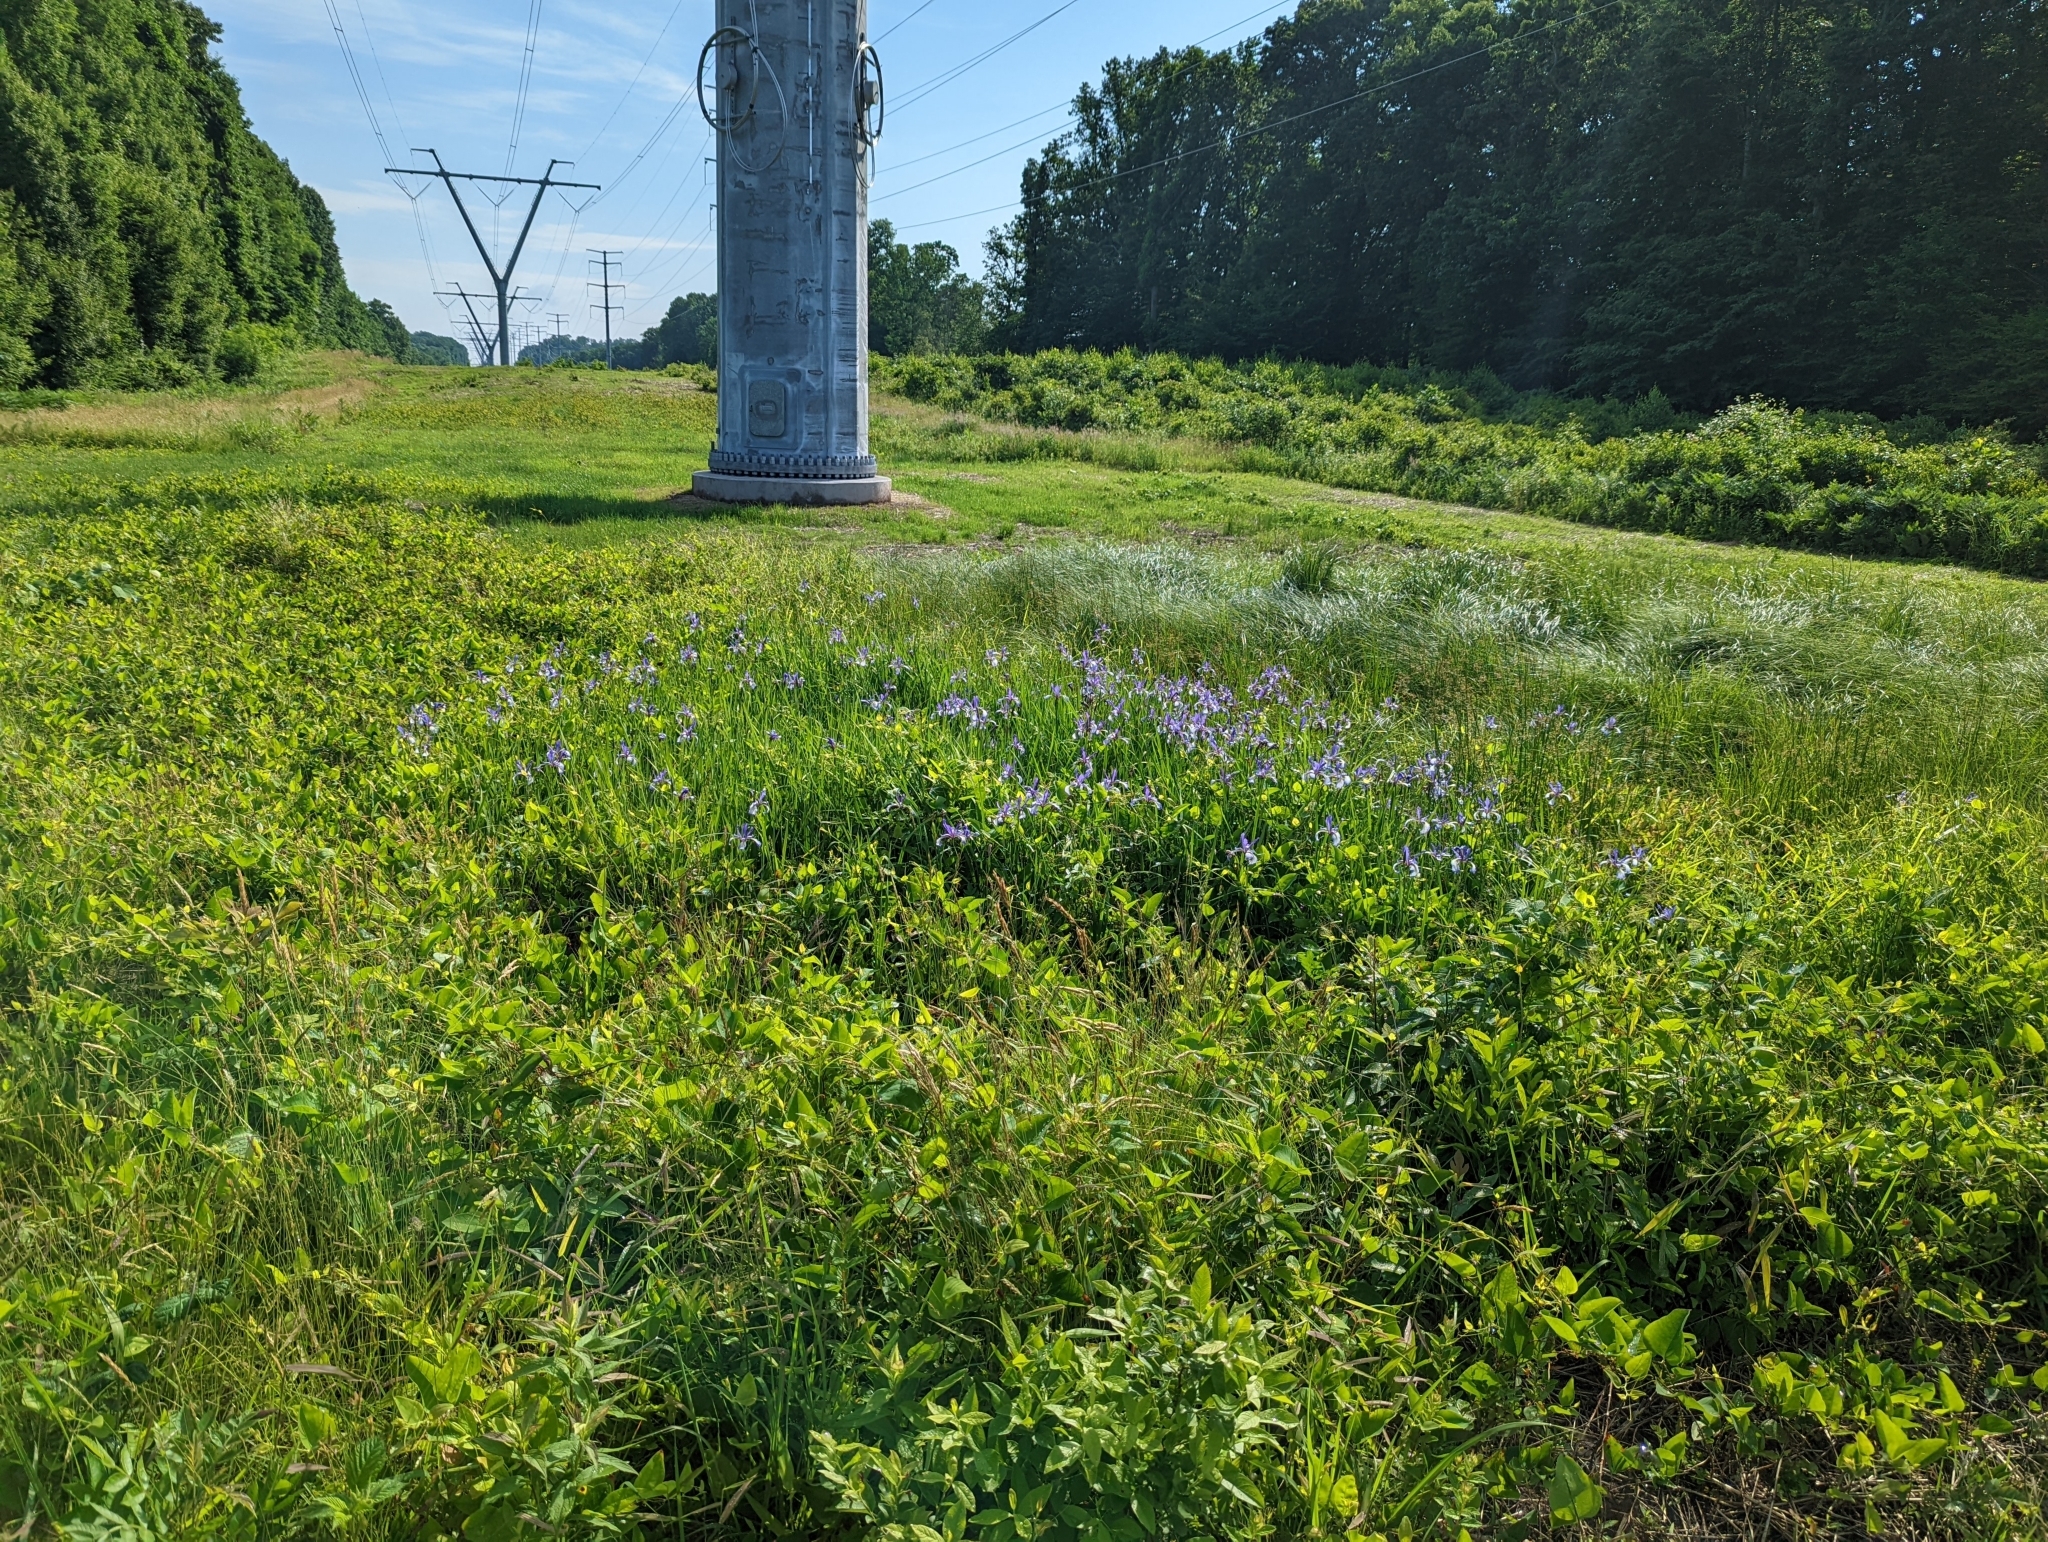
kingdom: Plantae
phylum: Tracheophyta
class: Liliopsida
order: Asparagales
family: Iridaceae
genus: Iris
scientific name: Iris versicolor
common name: Purple iris
